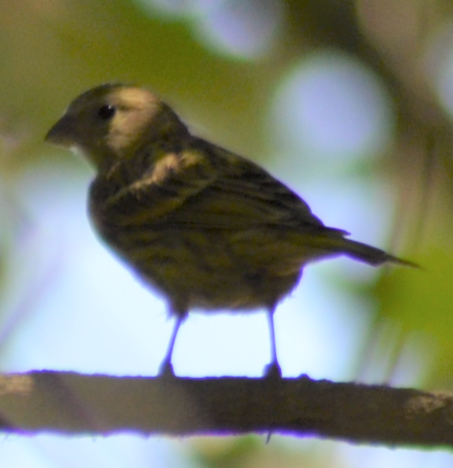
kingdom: Animalia
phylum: Chordata
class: Aves
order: Passeriformes
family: Fringillidae
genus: Serinus
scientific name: Serinus serinus
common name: European serin
